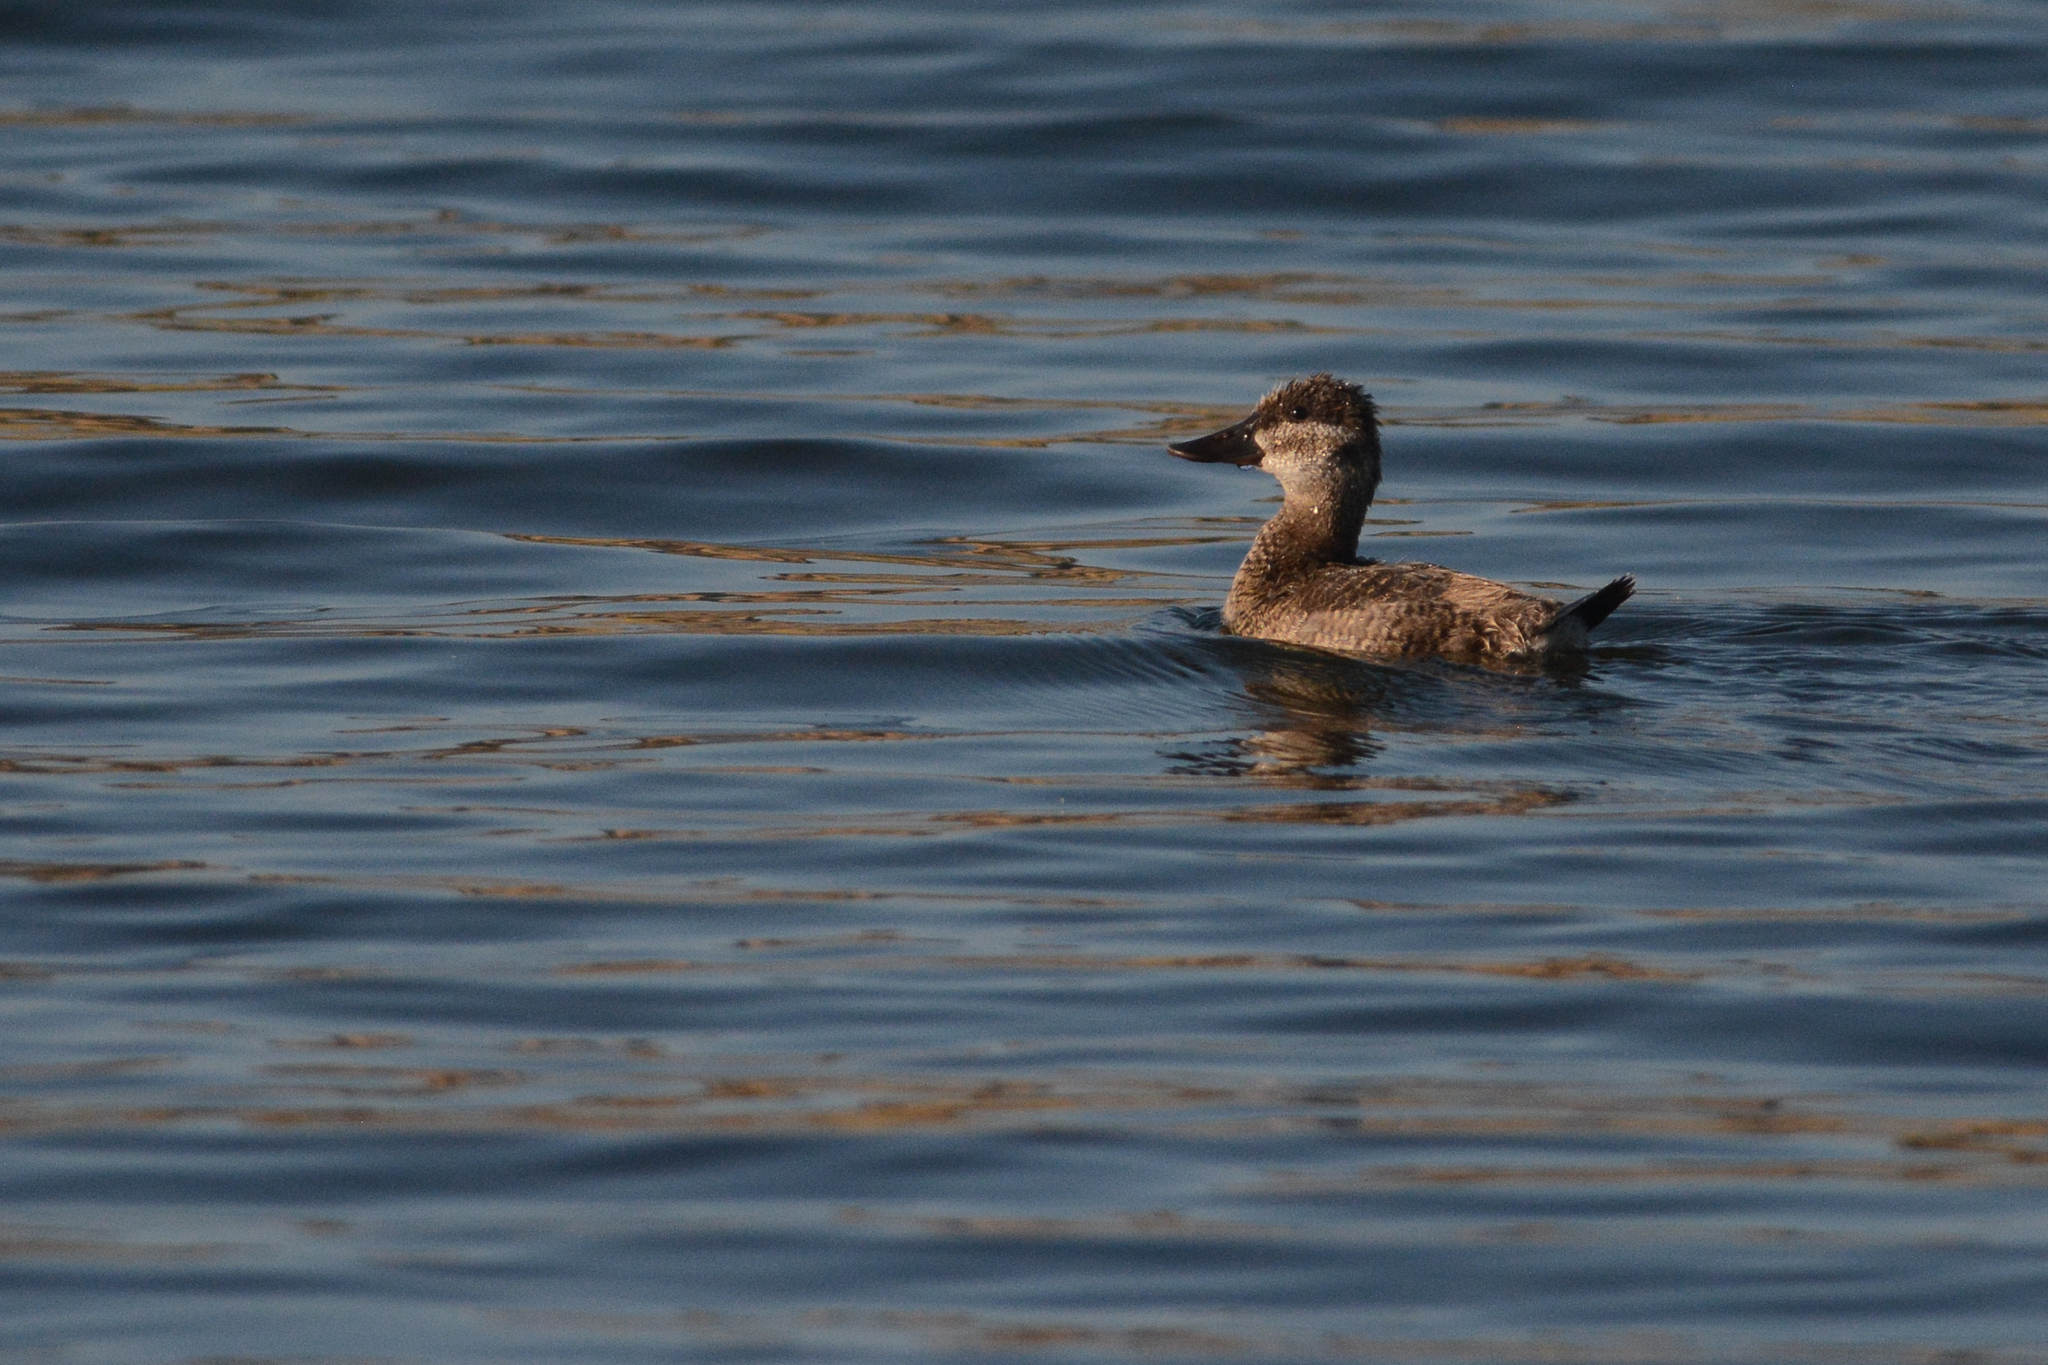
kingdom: Animalia
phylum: Chordata
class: Aves
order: Anseriformes
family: Anatidae
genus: Oxyura
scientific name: Oxyura jamaicensis
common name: Ruddy duck
